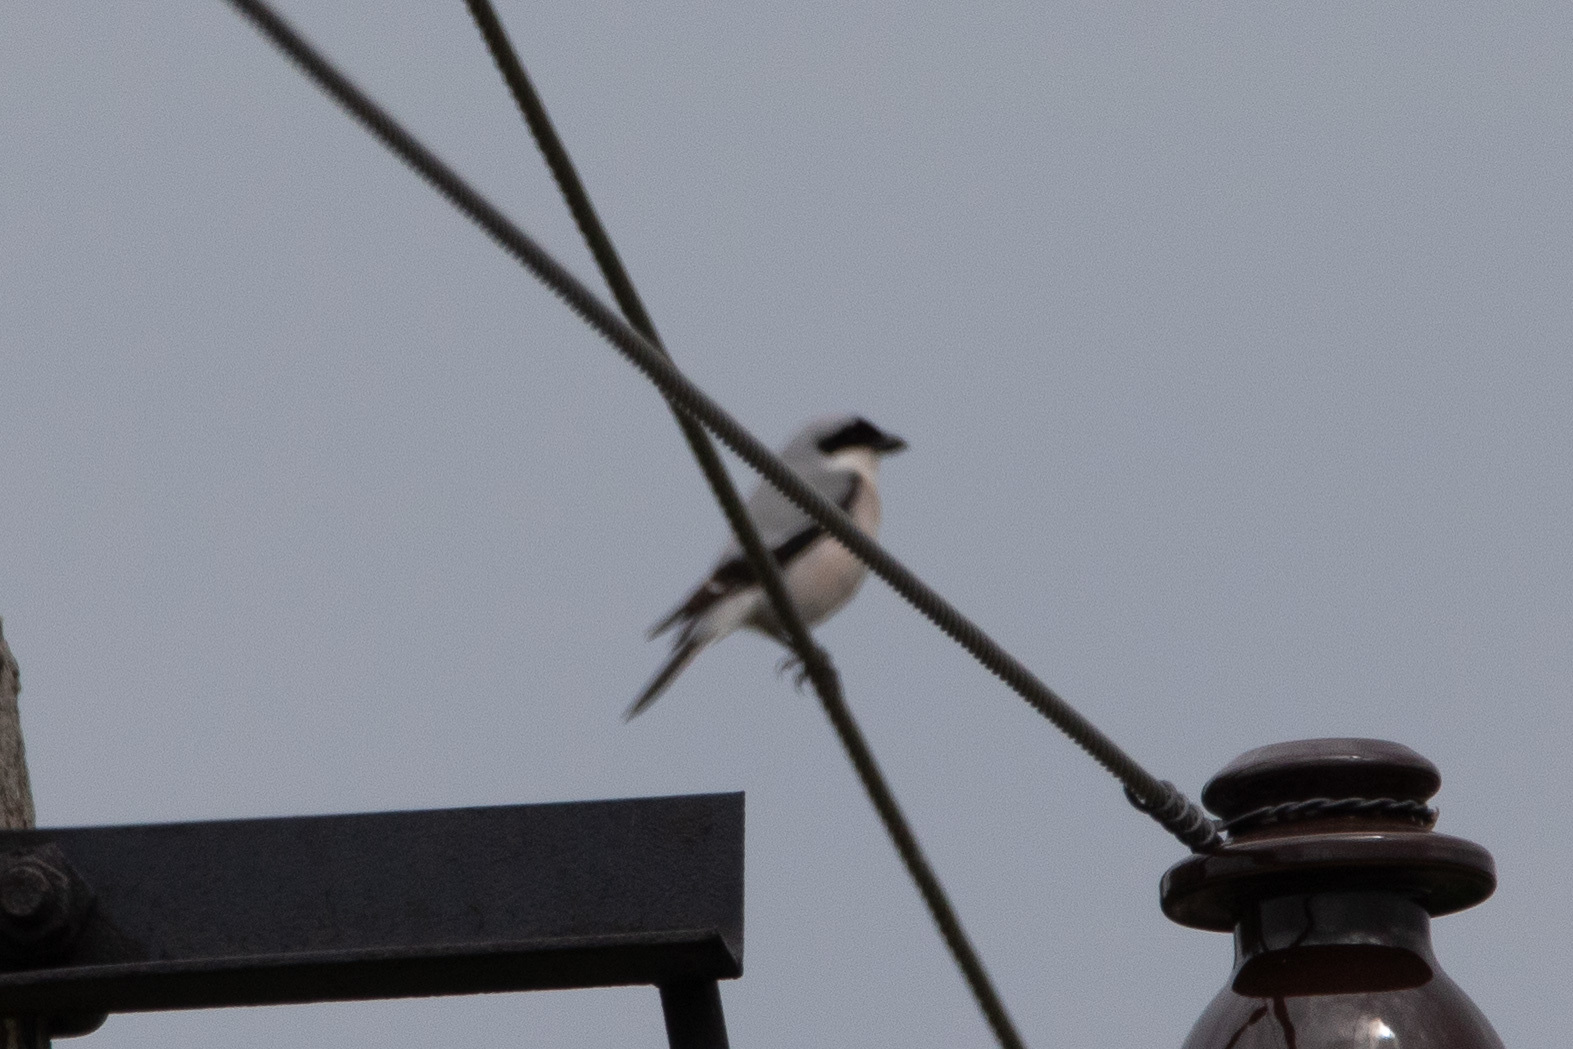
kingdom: Animalia
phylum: Chordata
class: Aves
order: Passeriformes
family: Laniidae
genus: Lanius
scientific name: Lanius minor
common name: Lesser grey shrike
